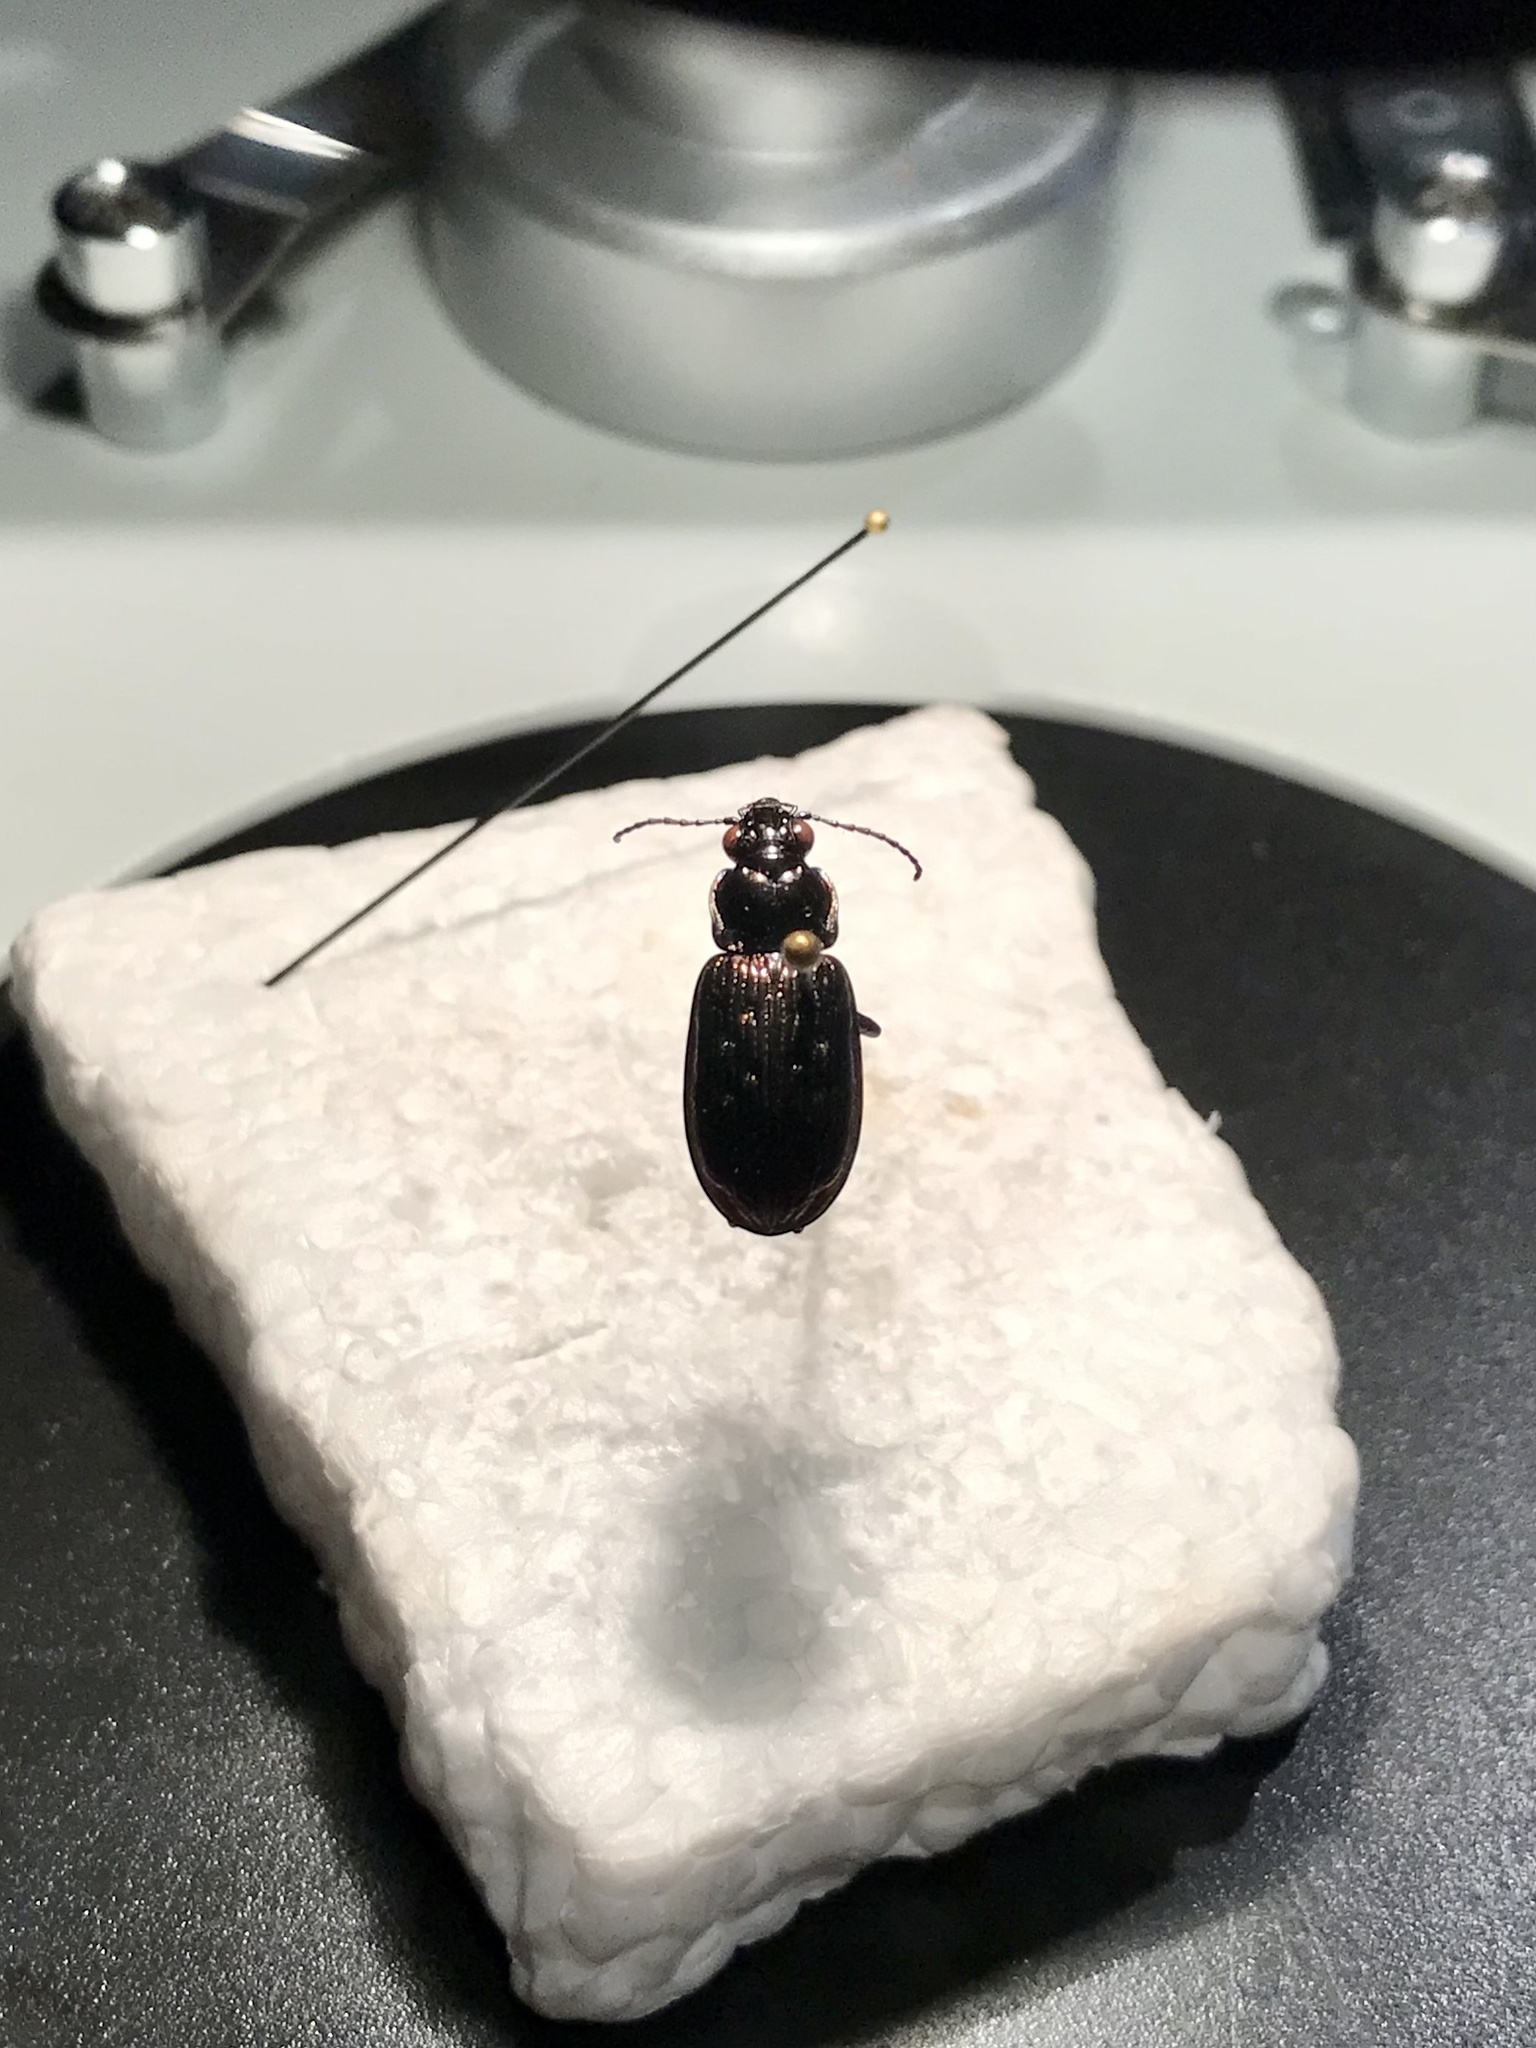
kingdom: Animalia
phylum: Arthropoda
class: Insecta
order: Coleoptera
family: Carabidae
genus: Blethisa
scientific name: Blethisa quadricollis
